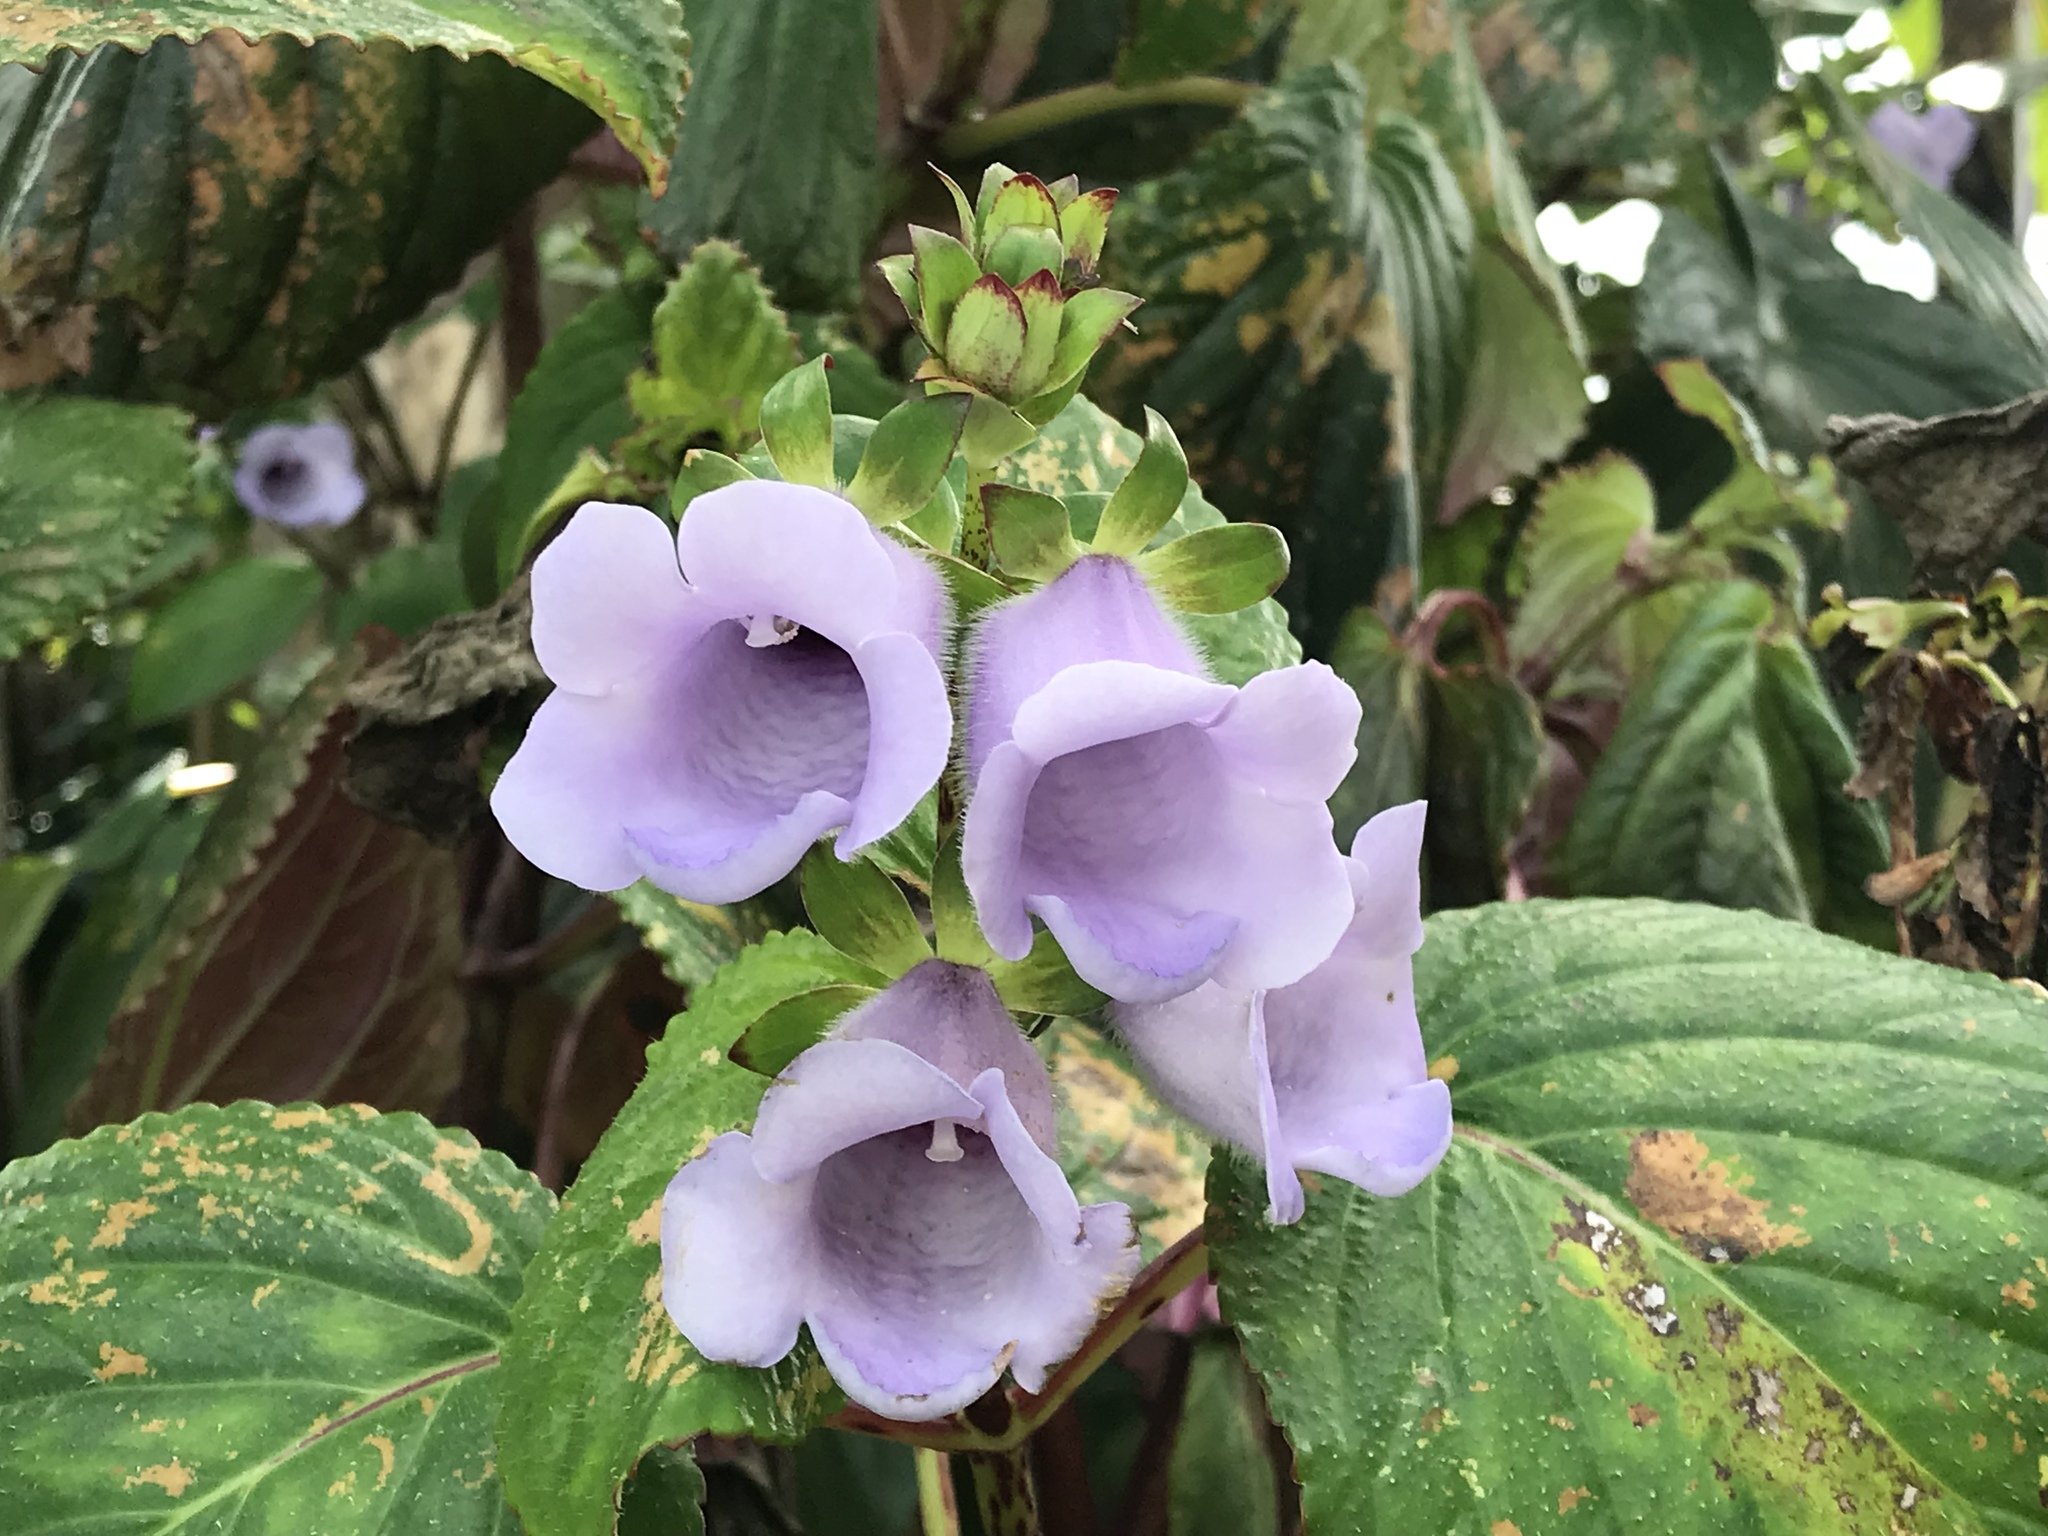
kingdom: Plantae
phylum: Tracheophyta
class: Magnoliopsida
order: Lamiales
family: Gesneriaceae
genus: Gloxinia
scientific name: Gloxinia perennis
